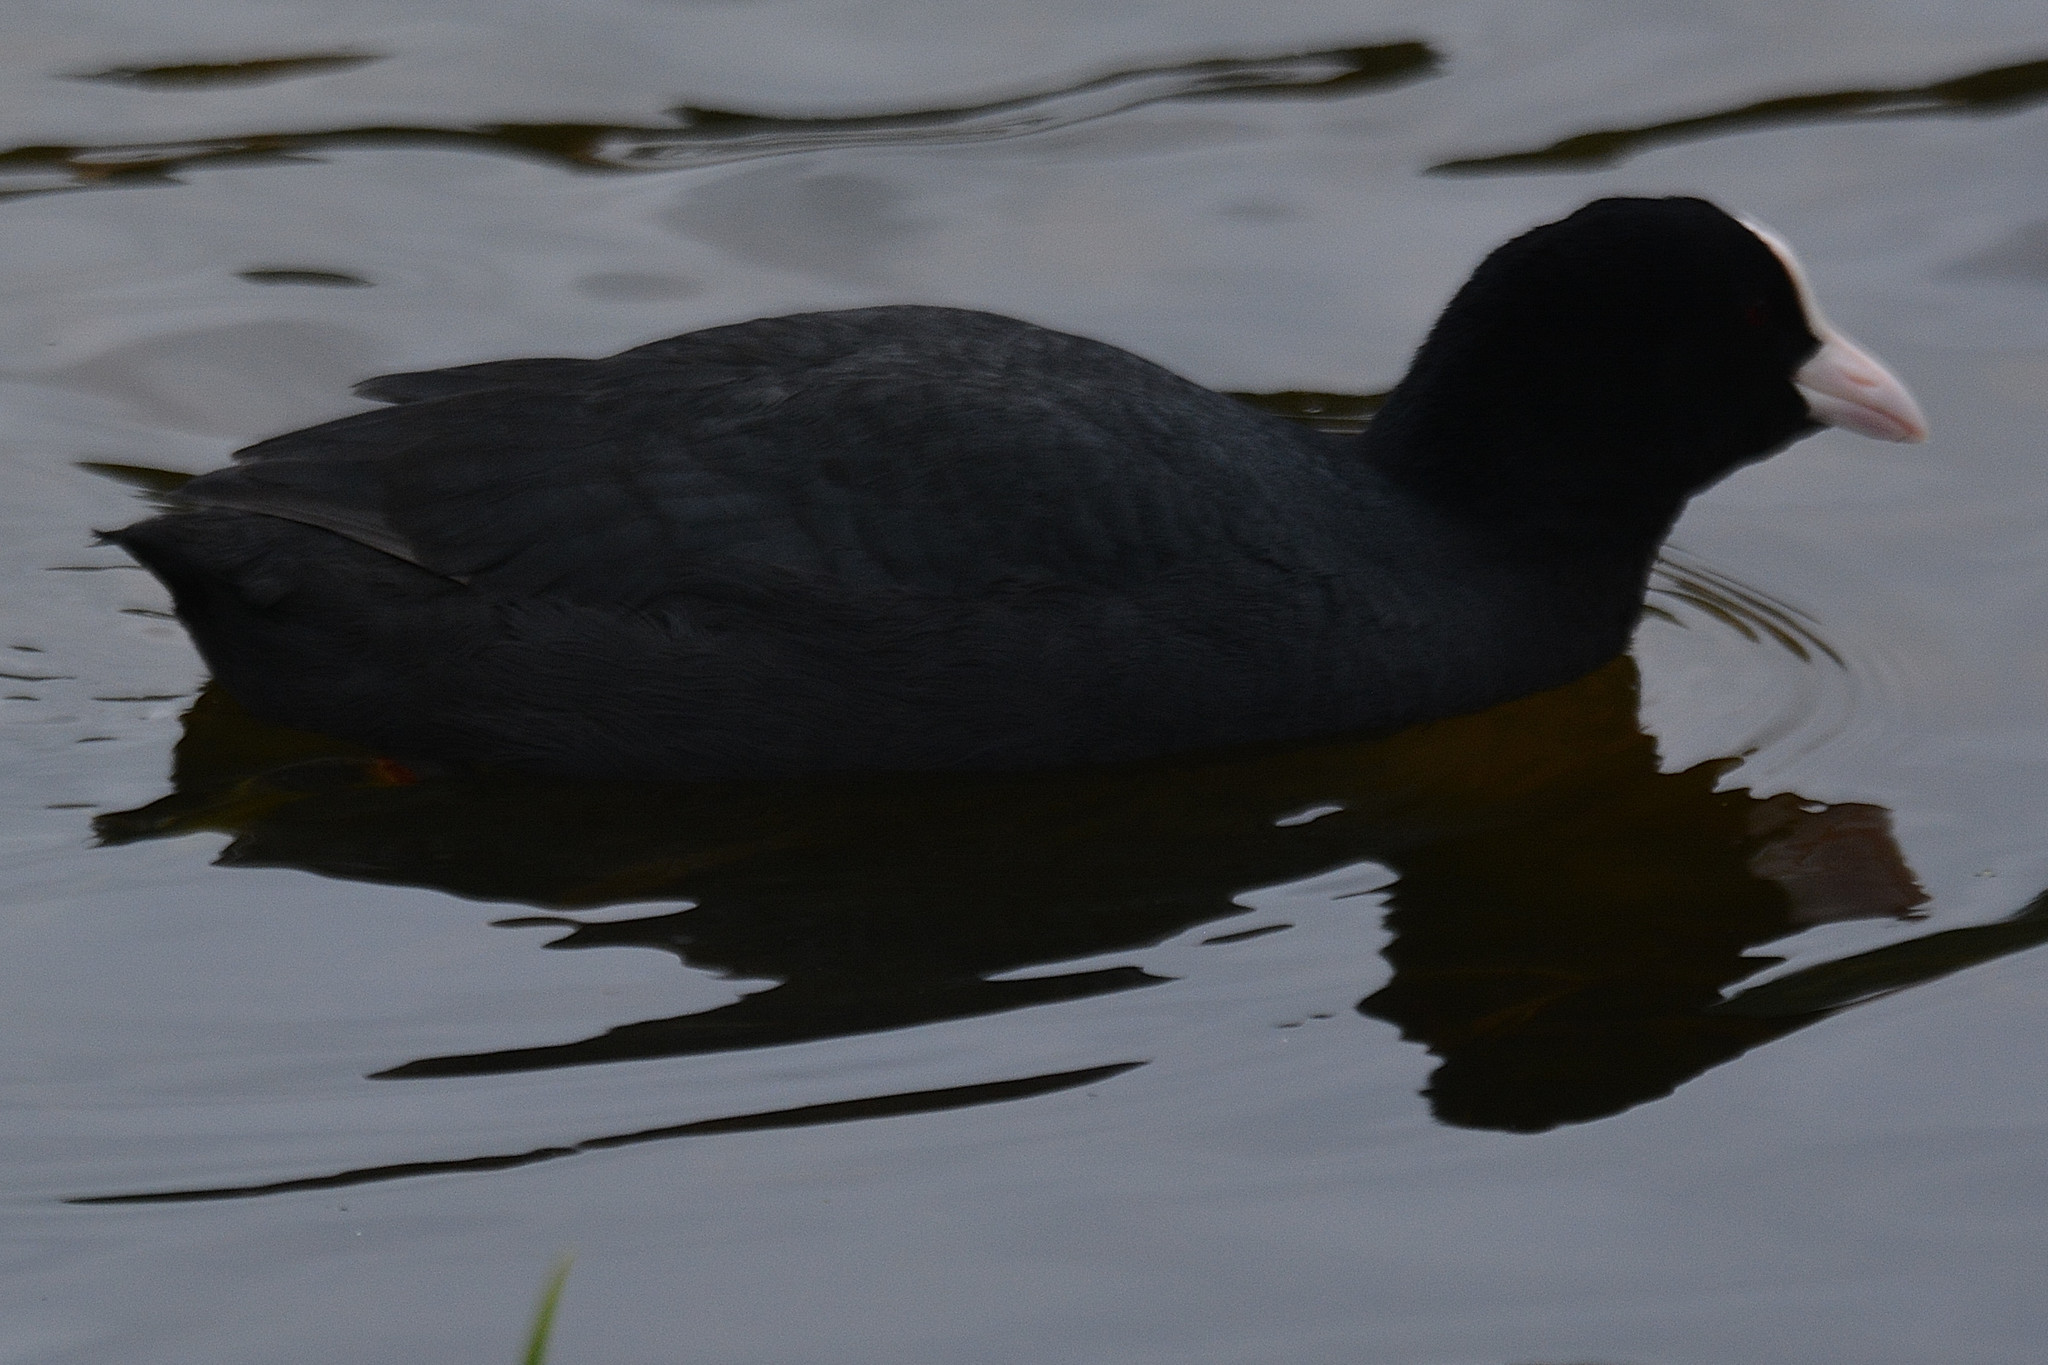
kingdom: Animalia
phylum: Chordata
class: Aves
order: Gruiformes
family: Rallidae
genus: Fulica
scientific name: Fulica atra
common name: Eurasian coot
